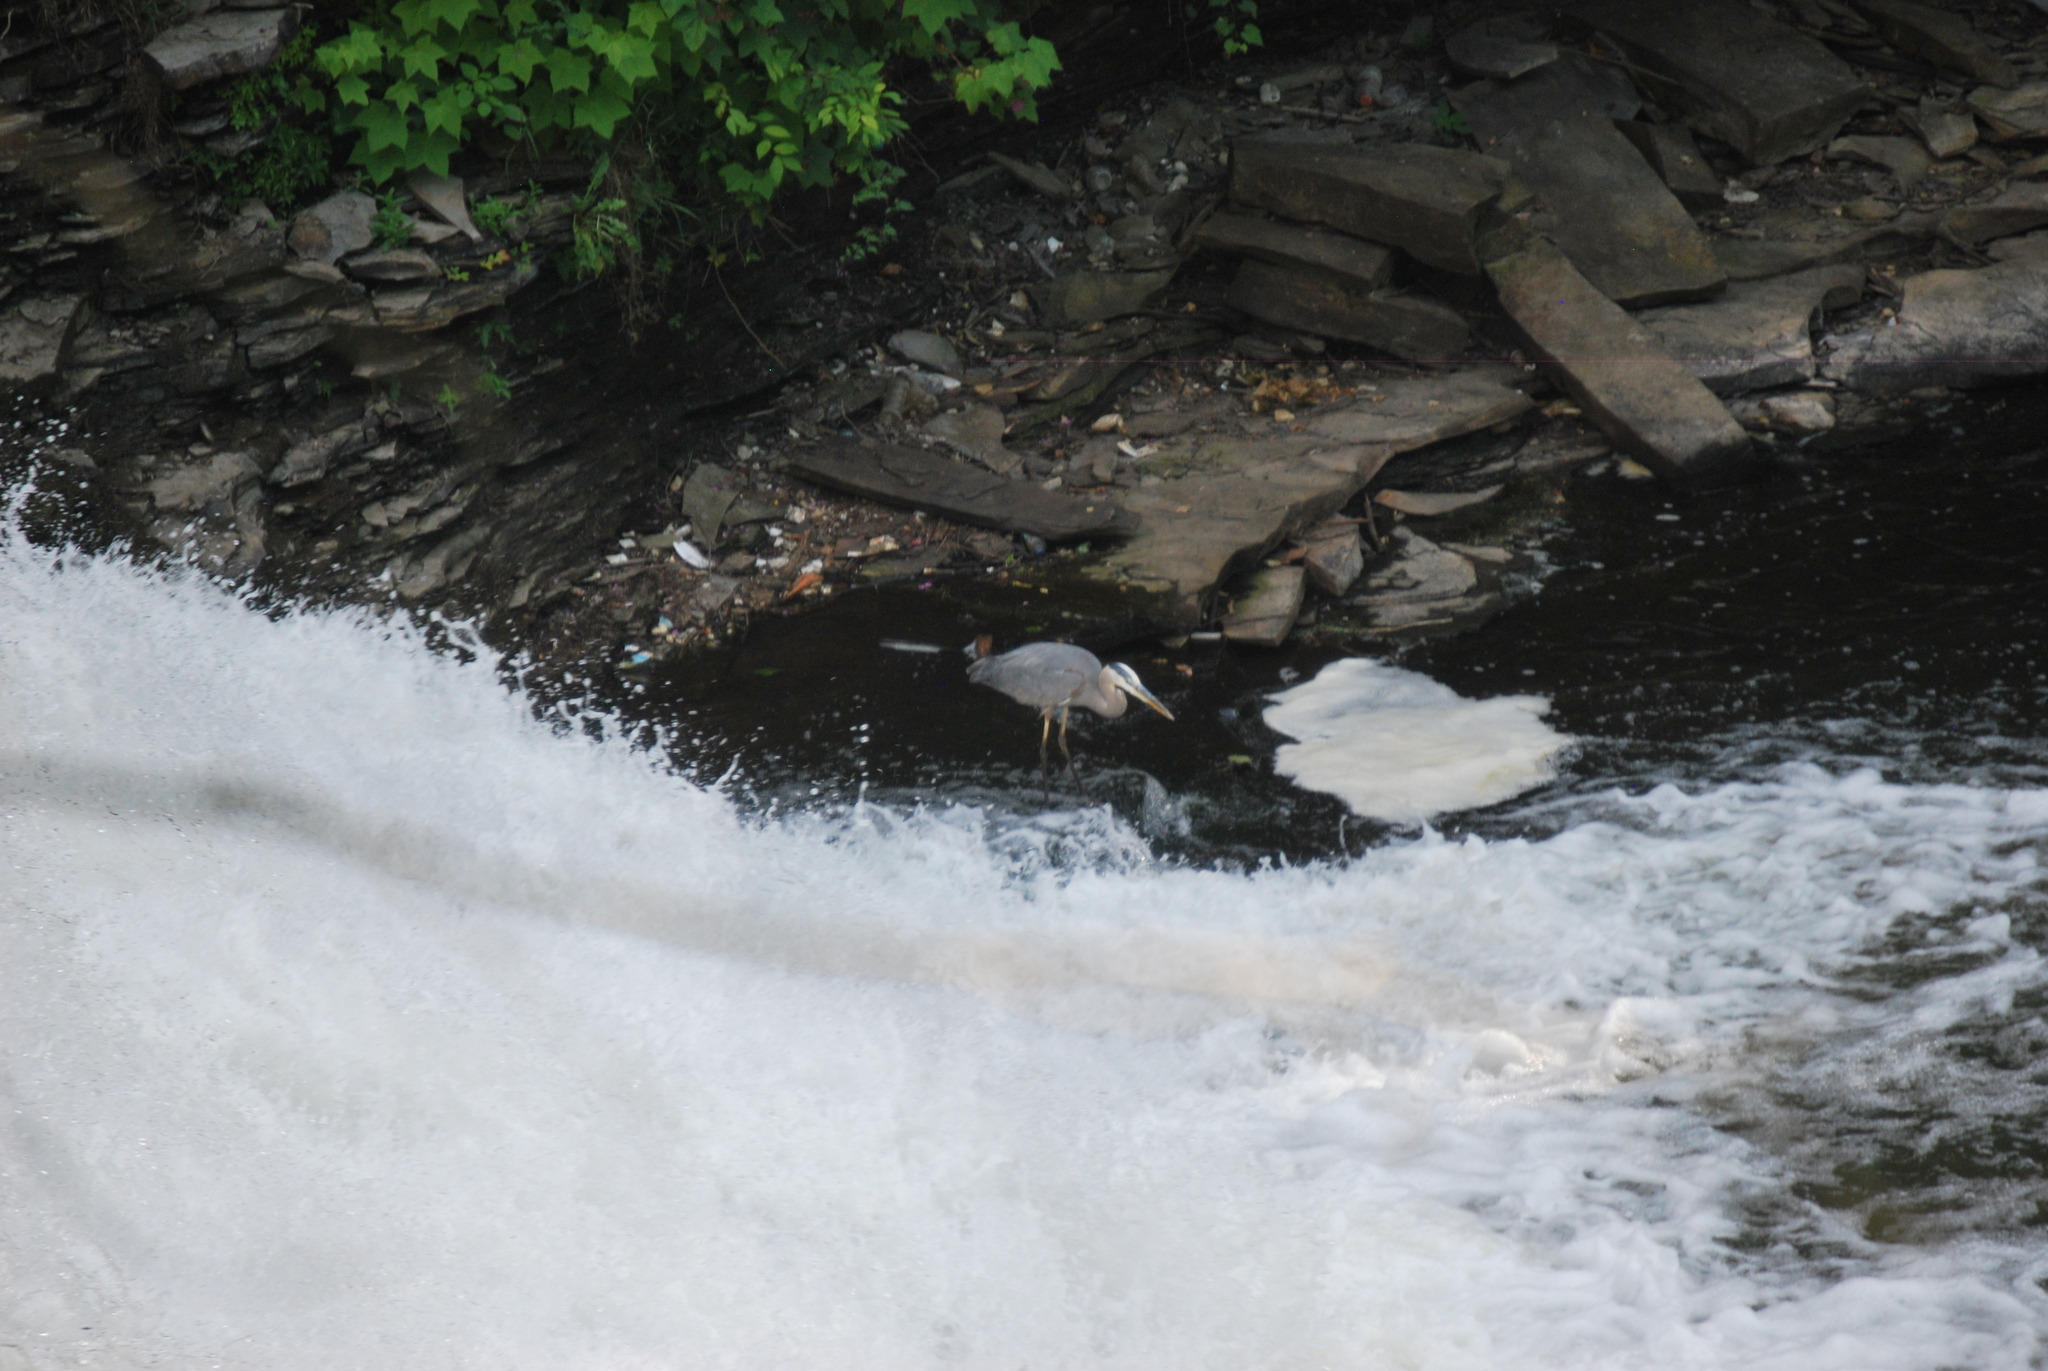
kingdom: Animalia
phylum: Chordata
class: Aves
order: Pelecaniformes
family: Ardeidae
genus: Ardea
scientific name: Ardea herodias
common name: Great blue heron
